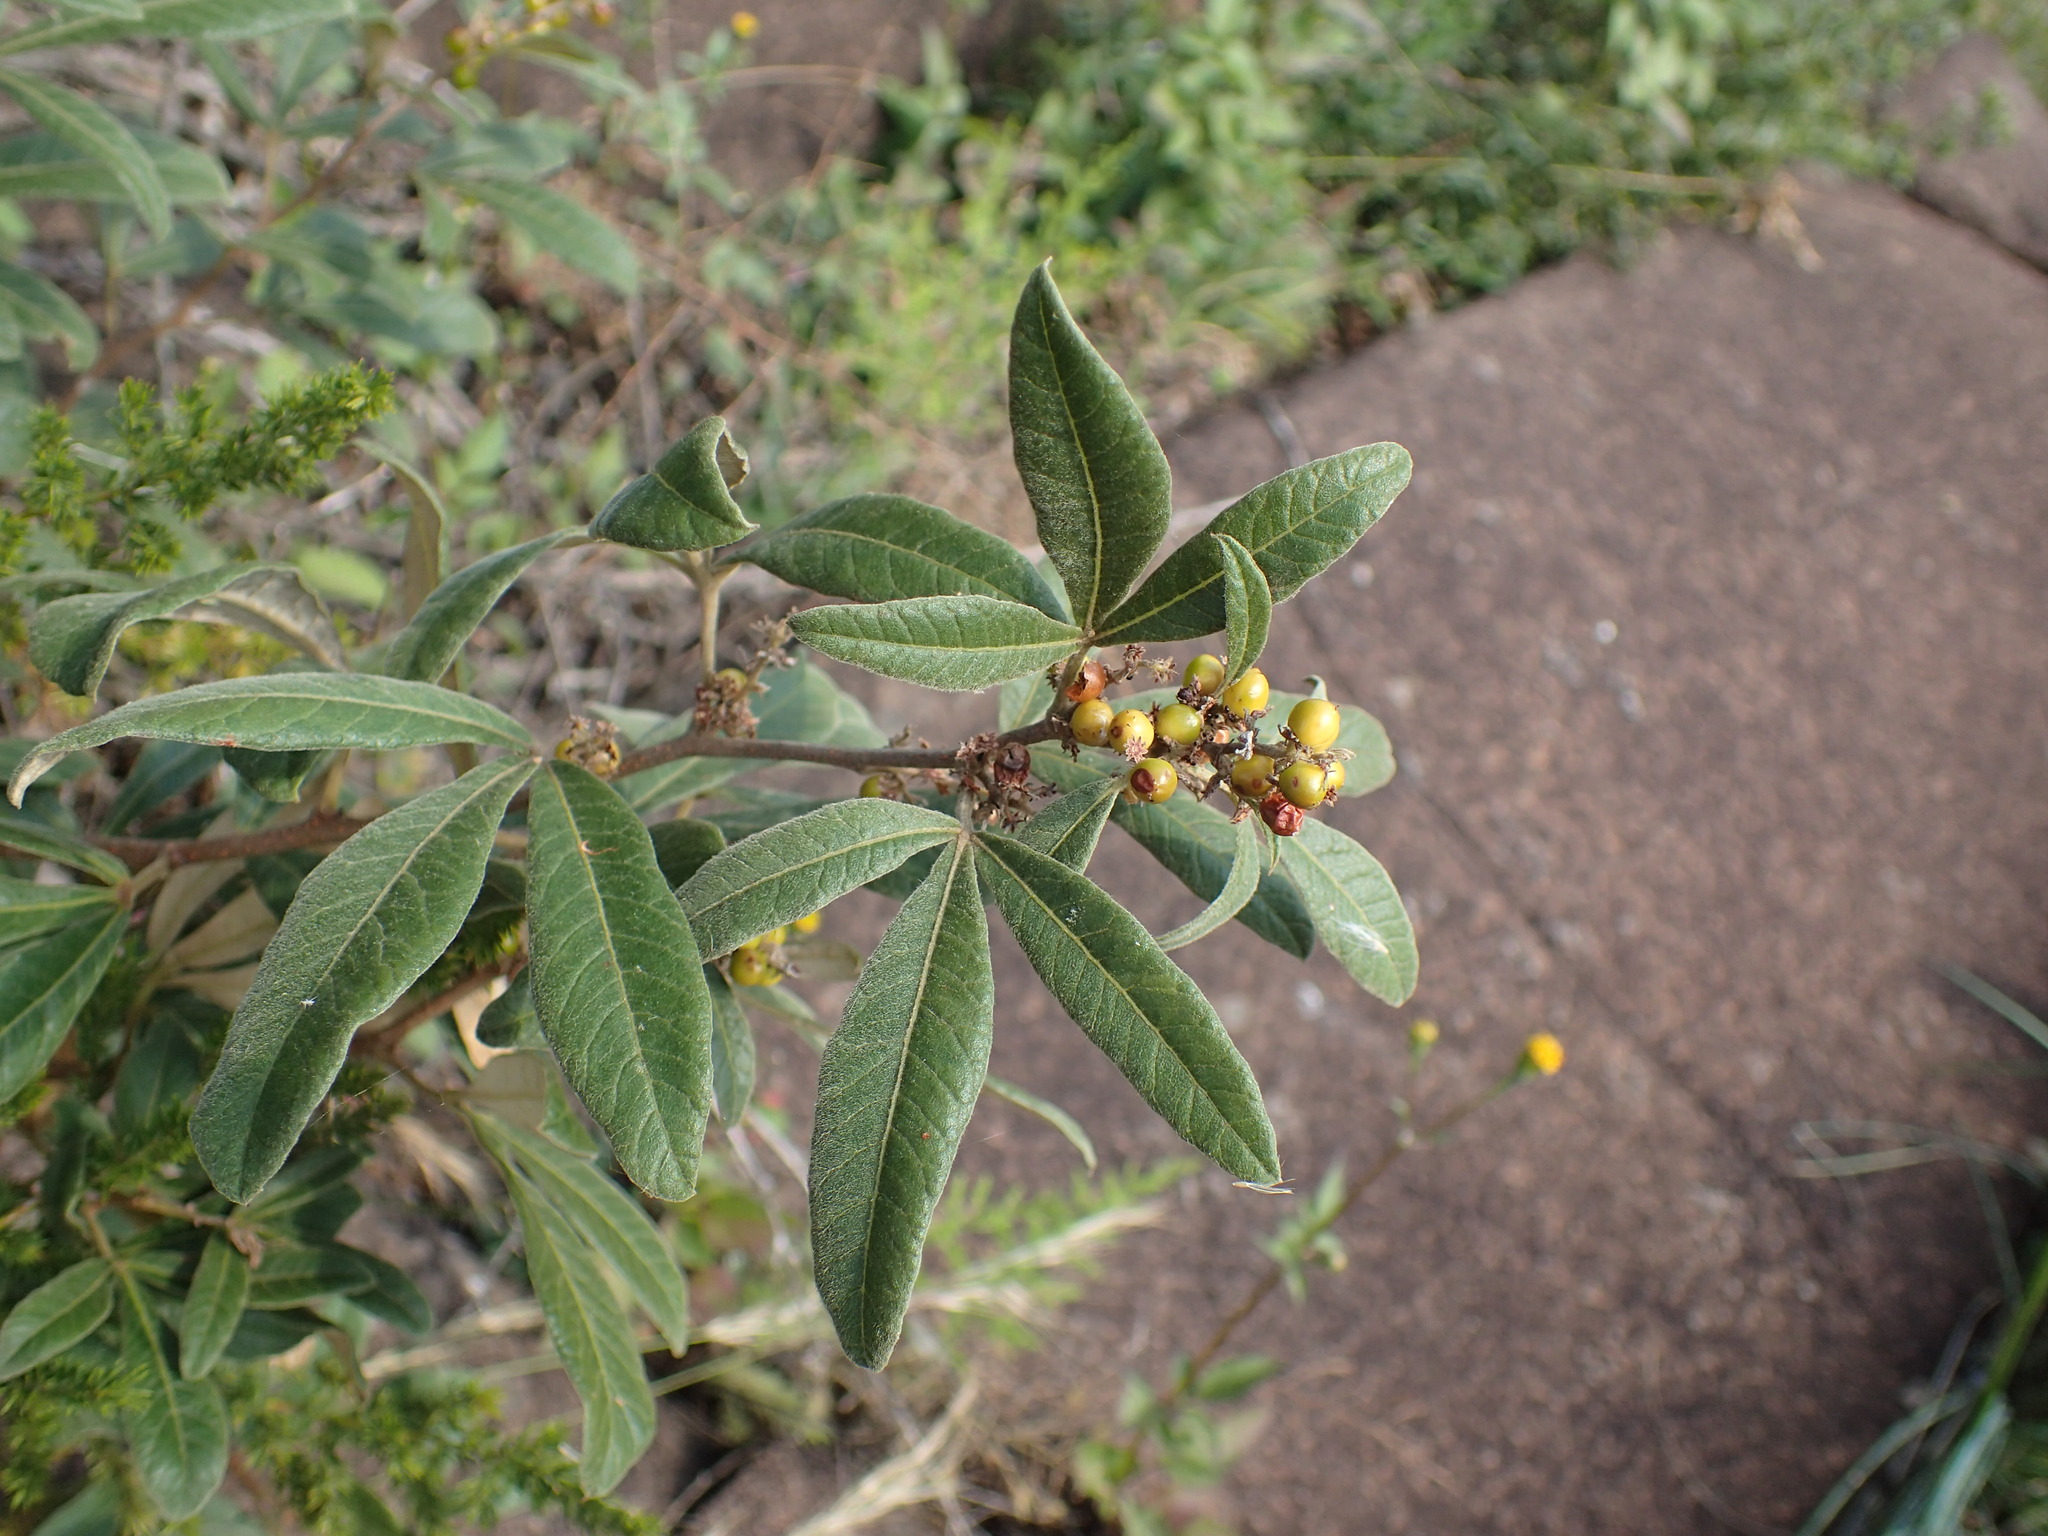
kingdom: Plantae
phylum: Tracheophyta
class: Magnoliopsida
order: Sapindales
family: Anacardiaceae
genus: Searsia
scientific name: Searsia discolor
